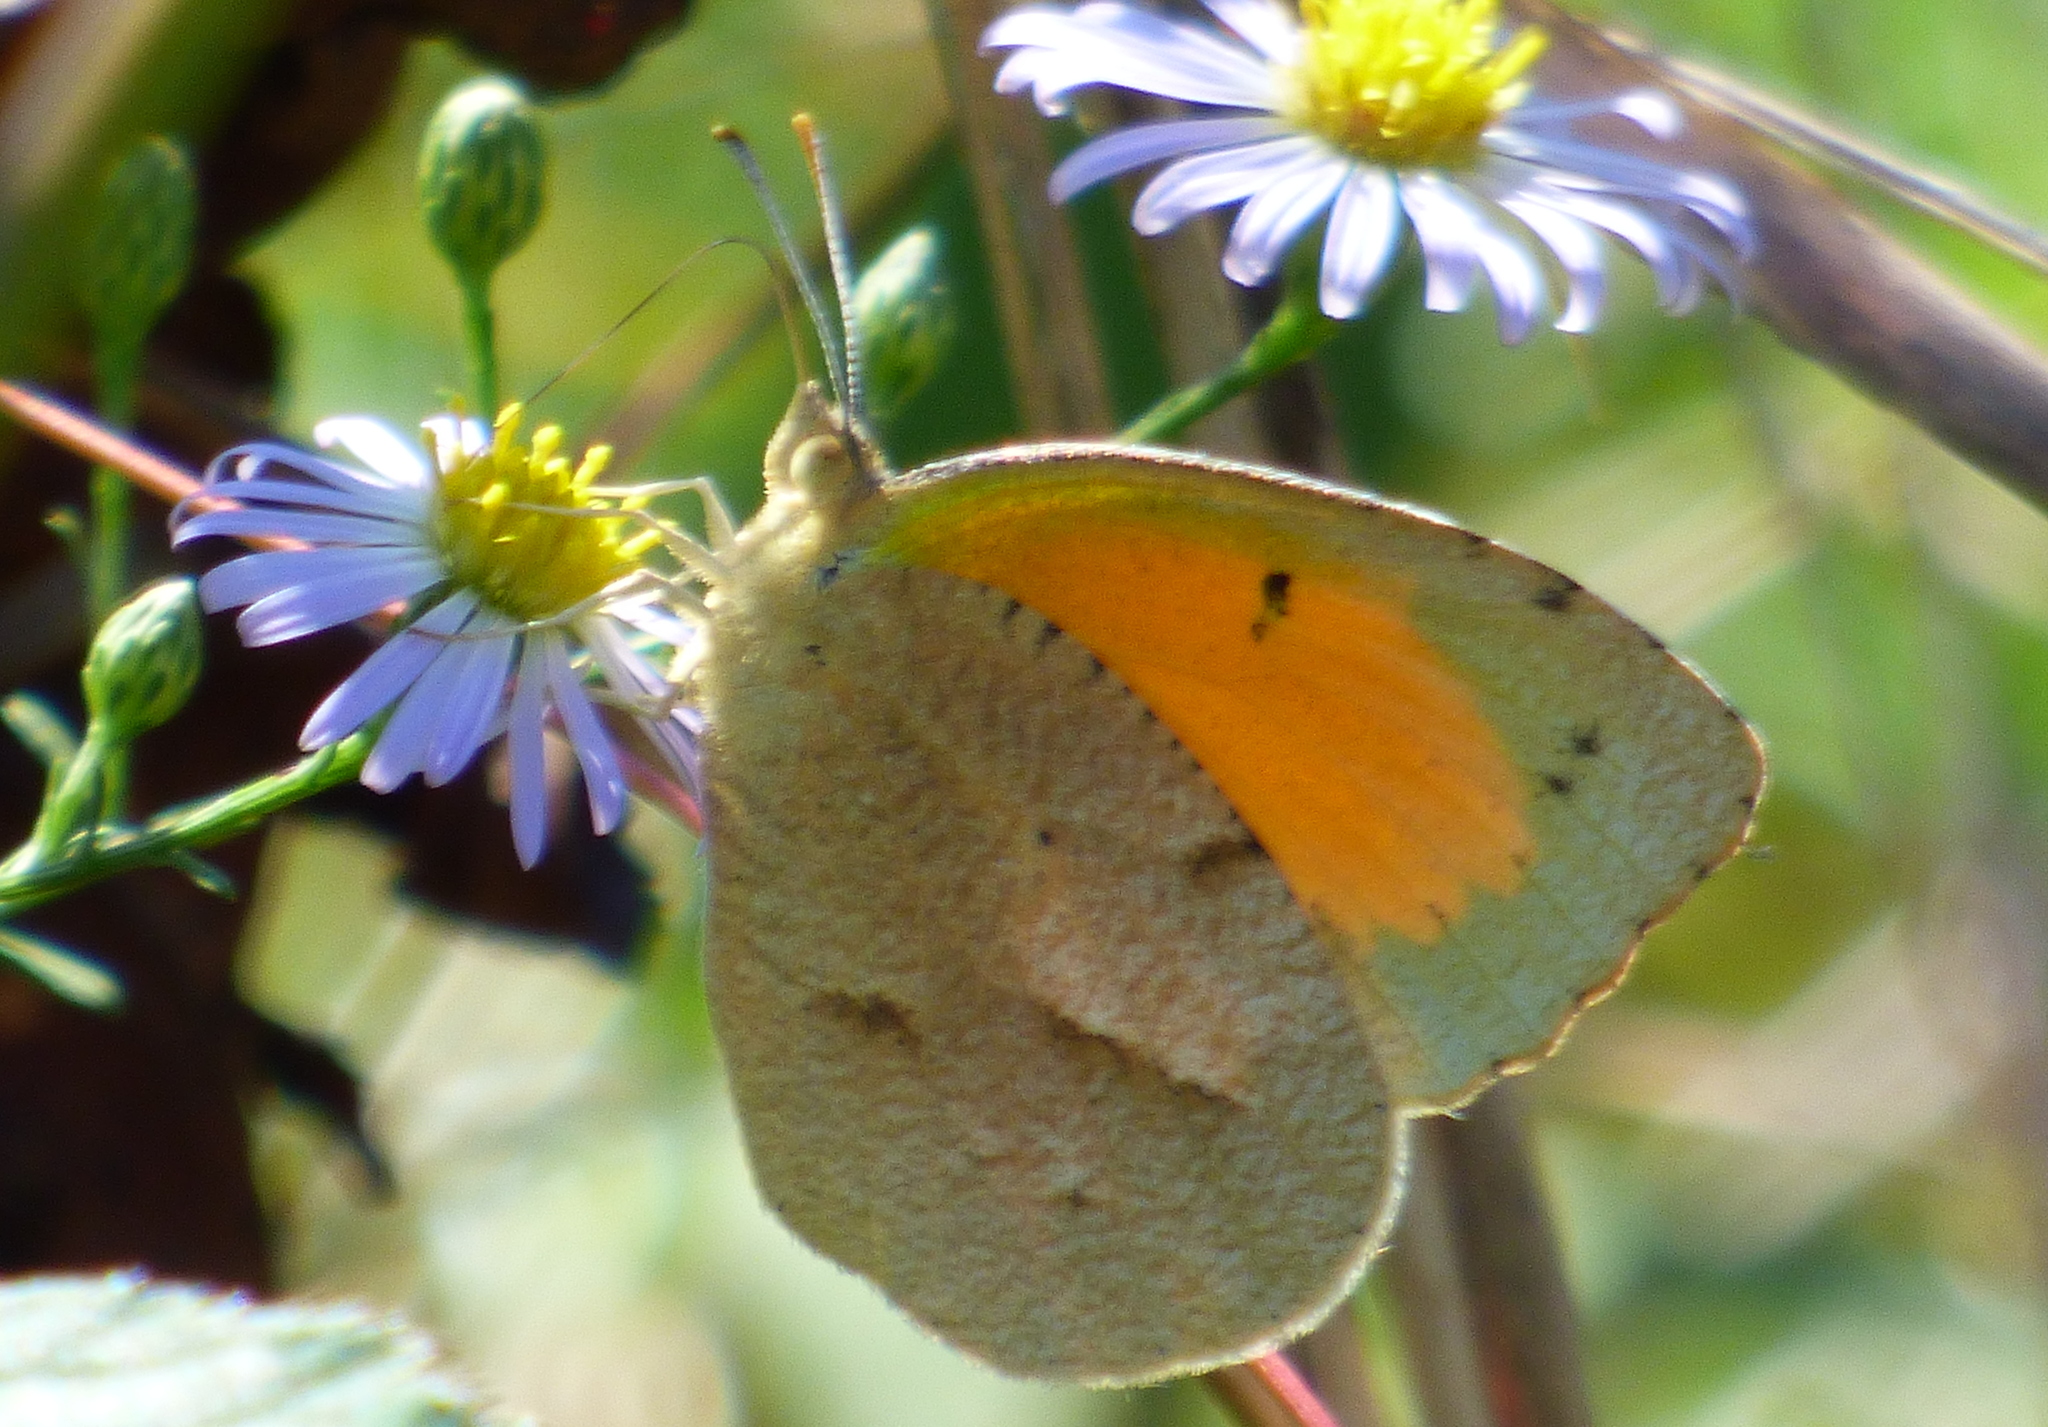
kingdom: Animalia
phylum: Arthropoda
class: Insecta
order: Lepidoptera
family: Pieridae
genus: Abaeis
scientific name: Abaeis nicippe
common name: Sleepy orange
